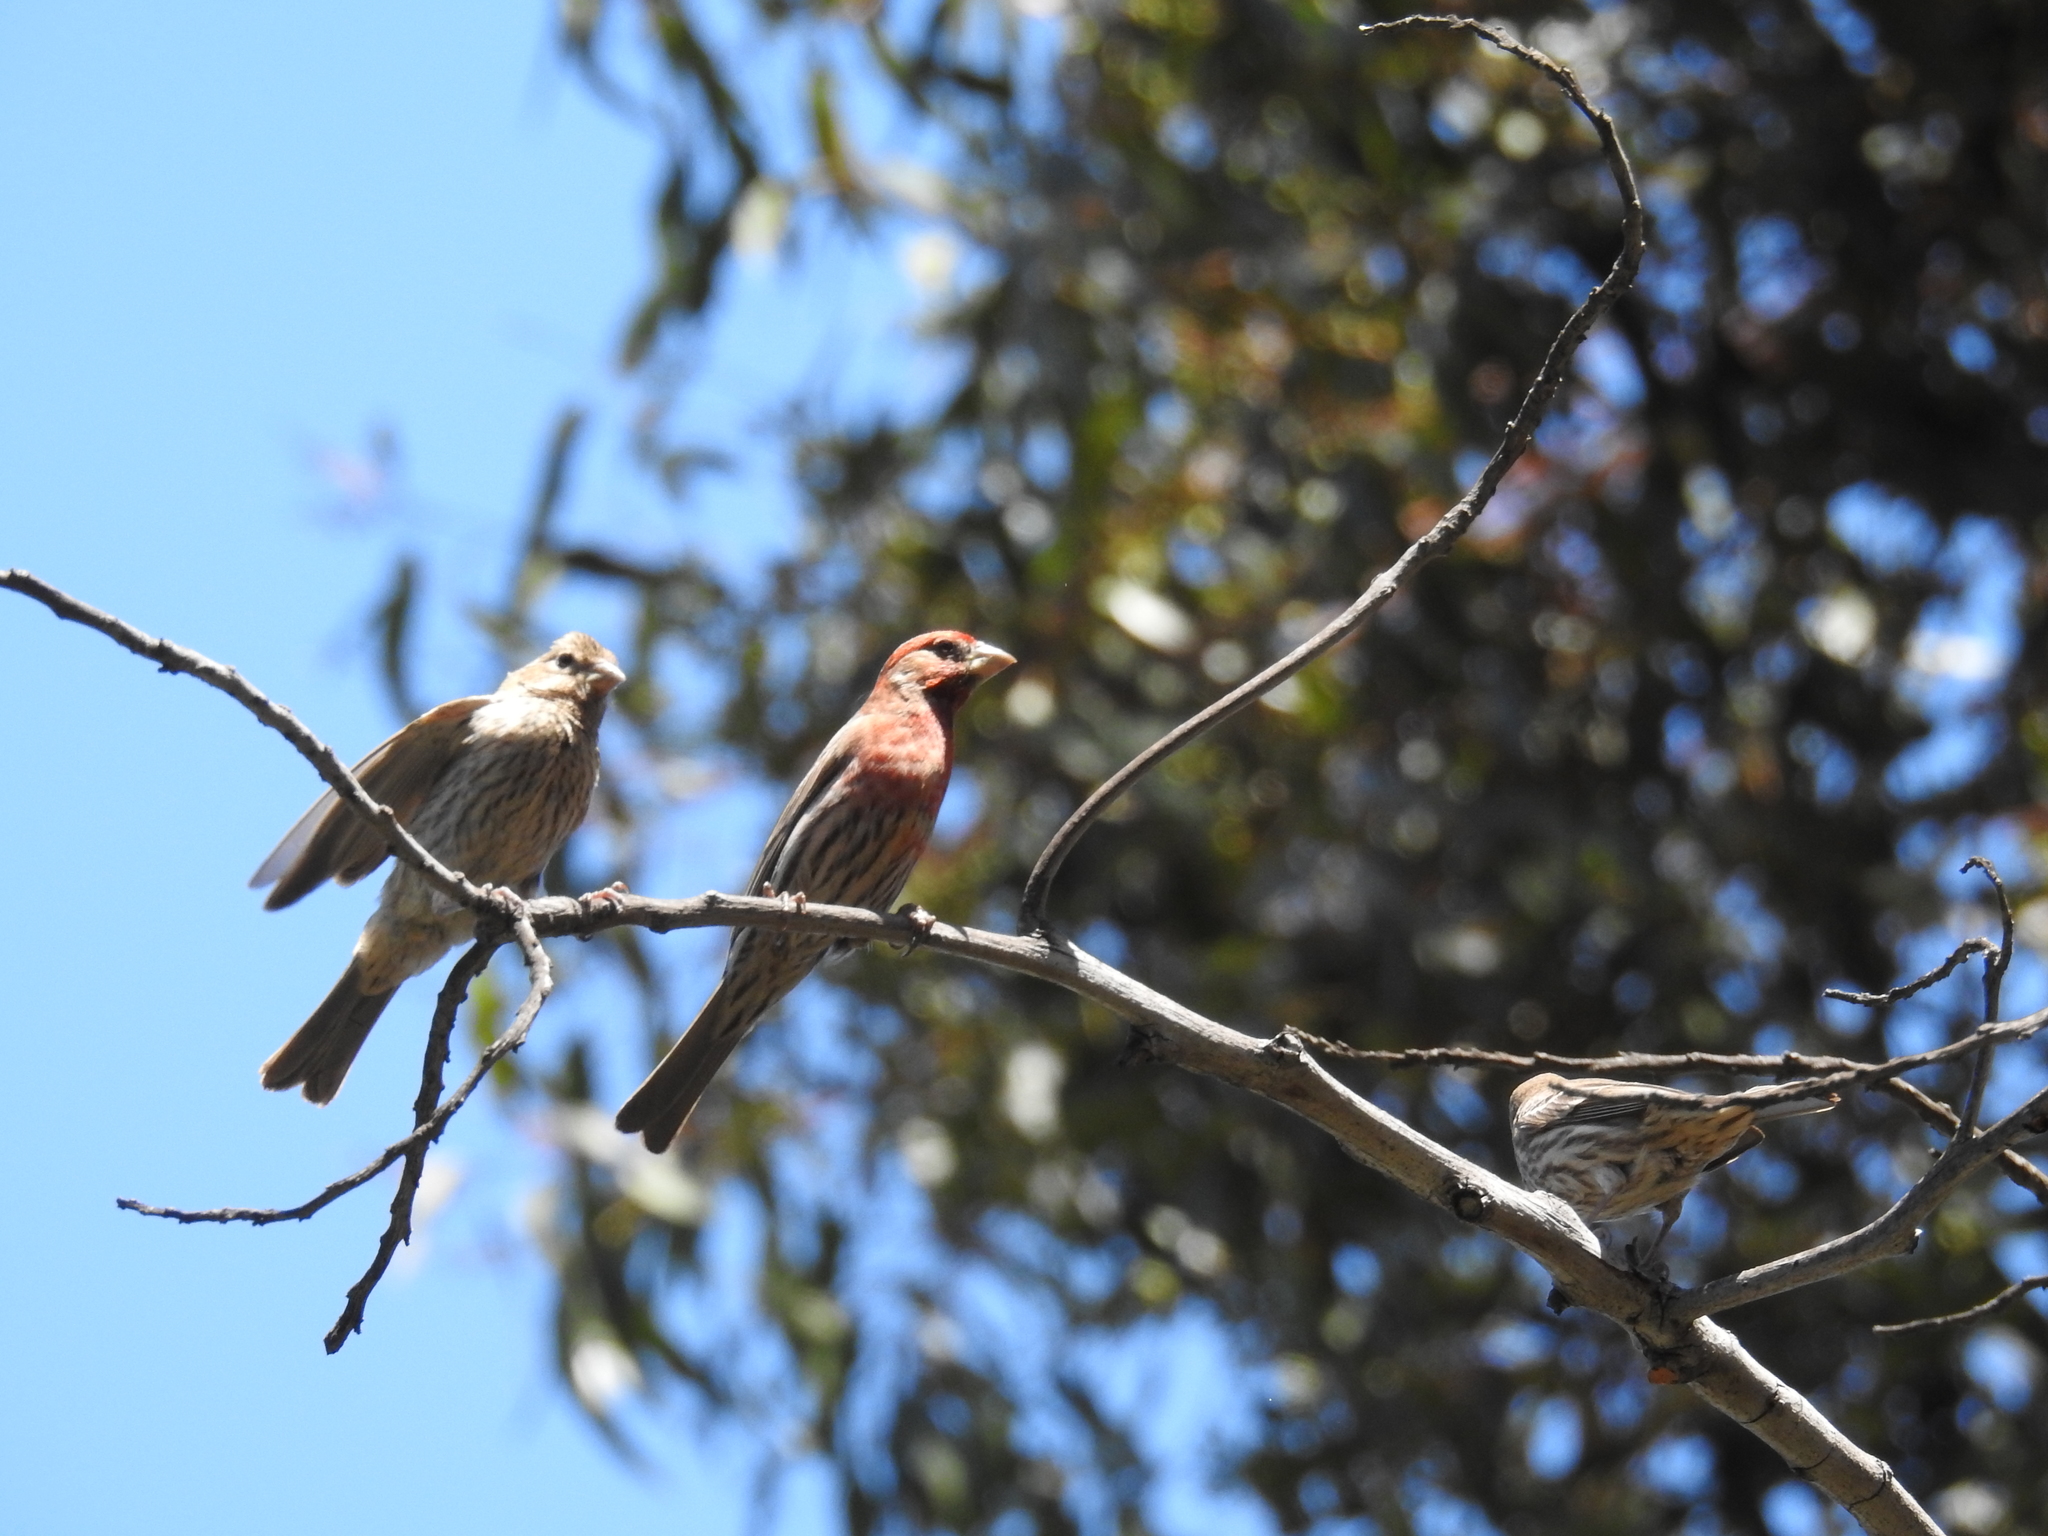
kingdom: Animalia
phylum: Chordata
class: Aves
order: Passeriformes
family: Fringillidae
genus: Haemorhous
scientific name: Haemorhous mexicanus
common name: House finch
